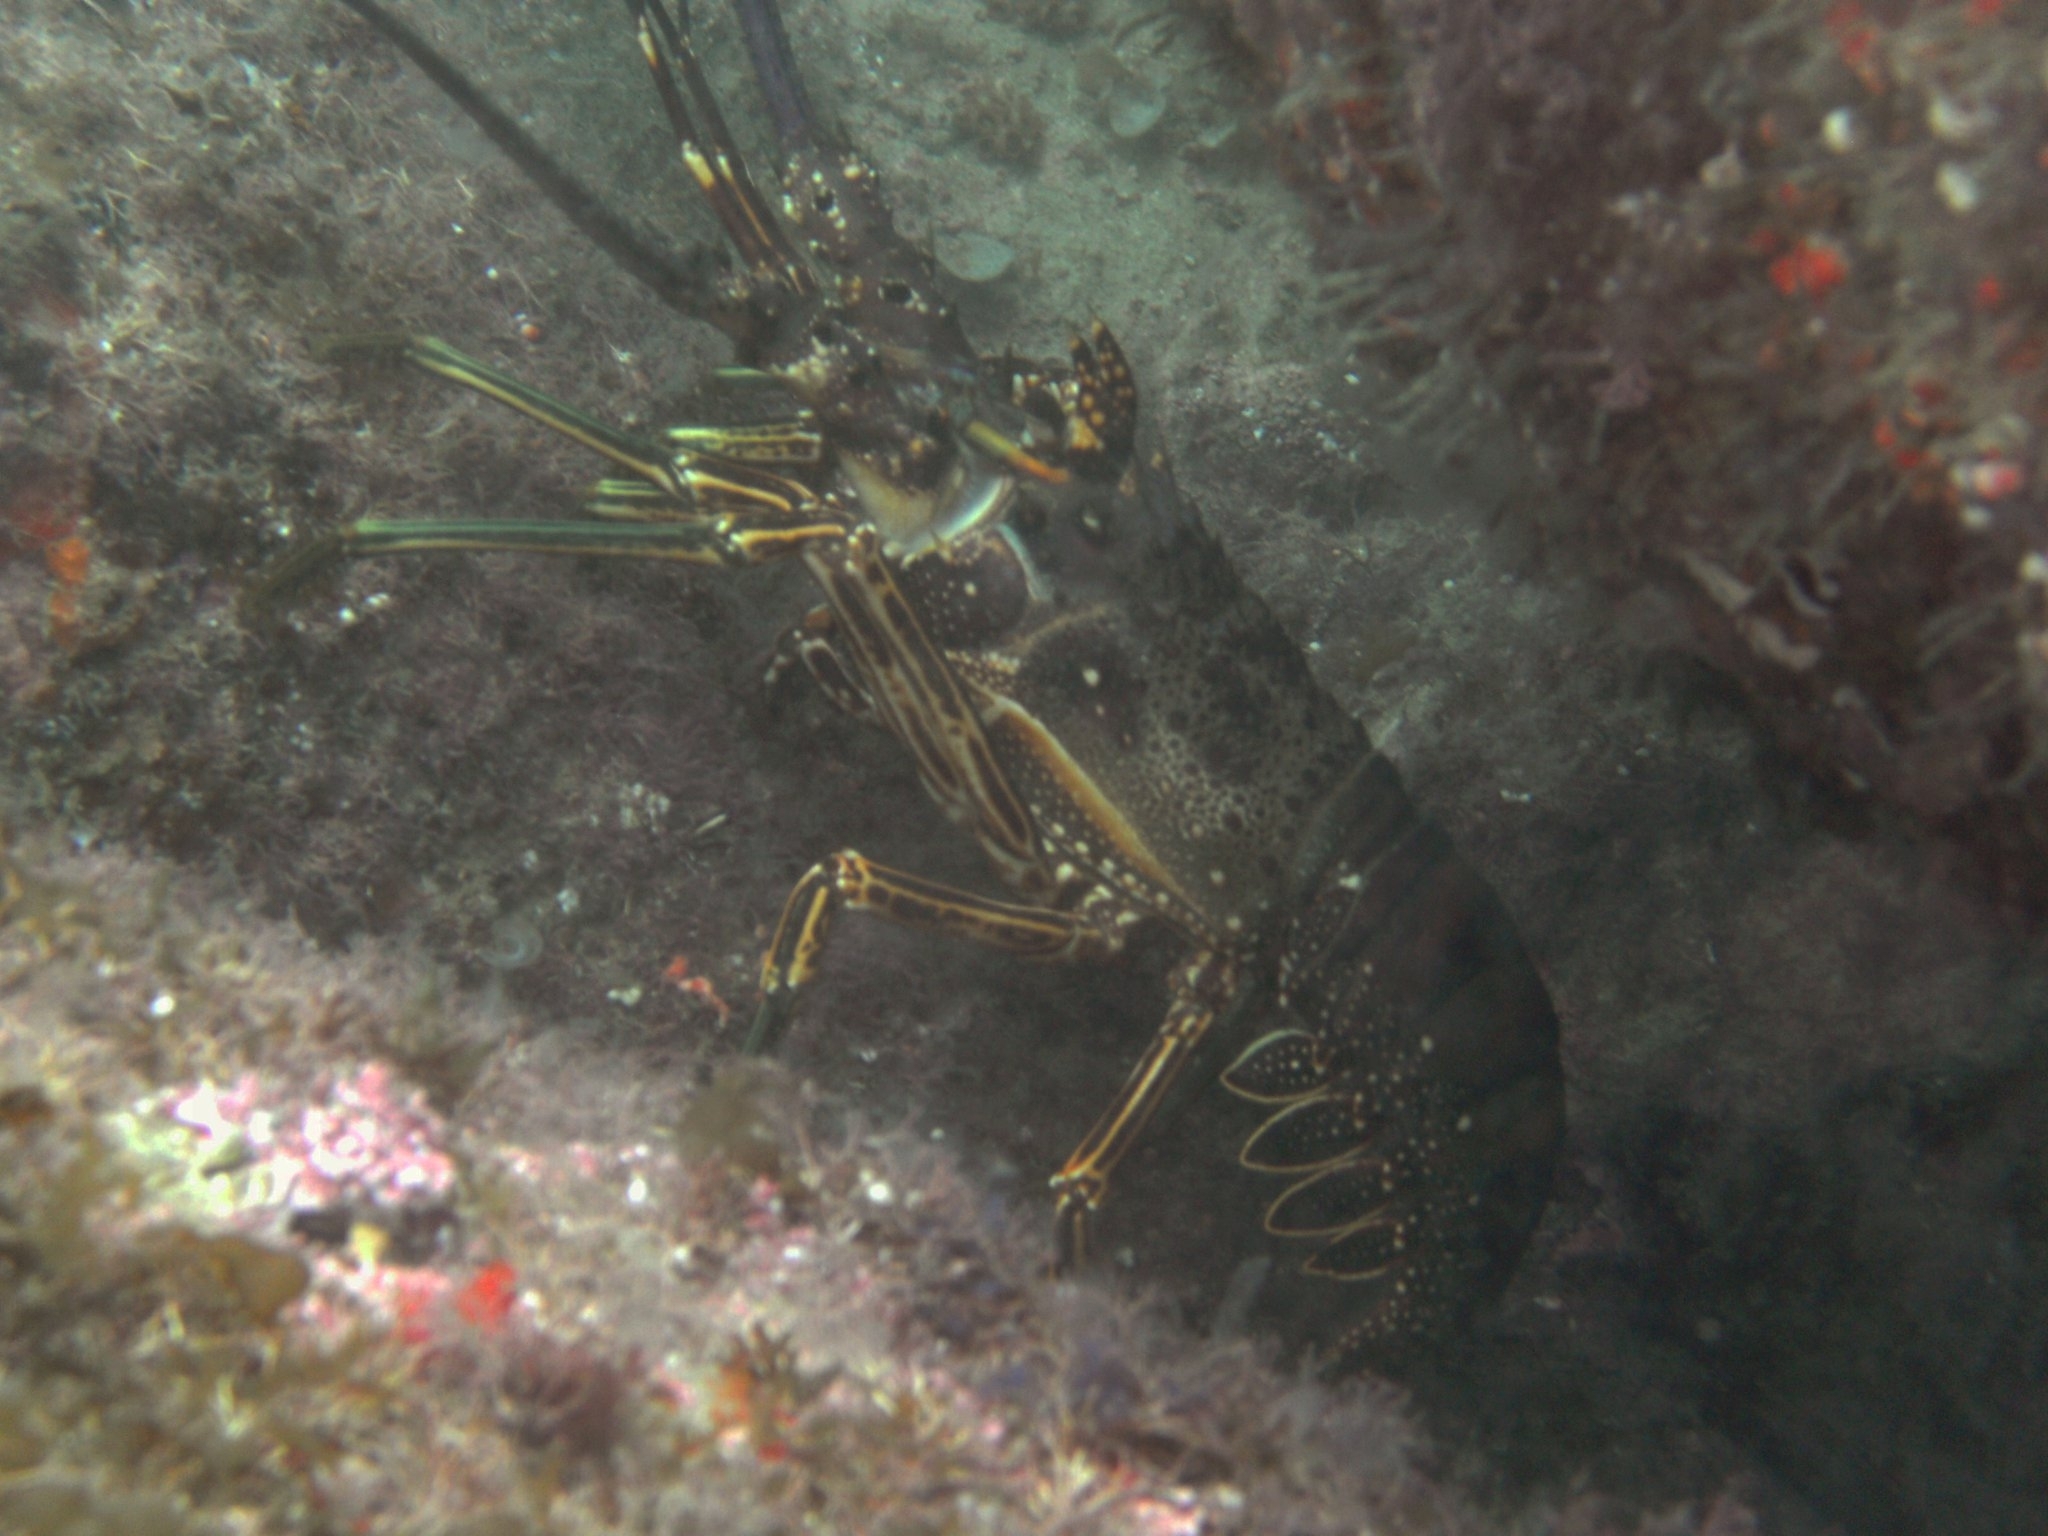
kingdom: Animalia
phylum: Arthropoda
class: Malacostraca
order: Decapoda
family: Palinuridae
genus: Panulirus
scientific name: Panulirus laevicauda
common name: Smoothtail spiny lobster
